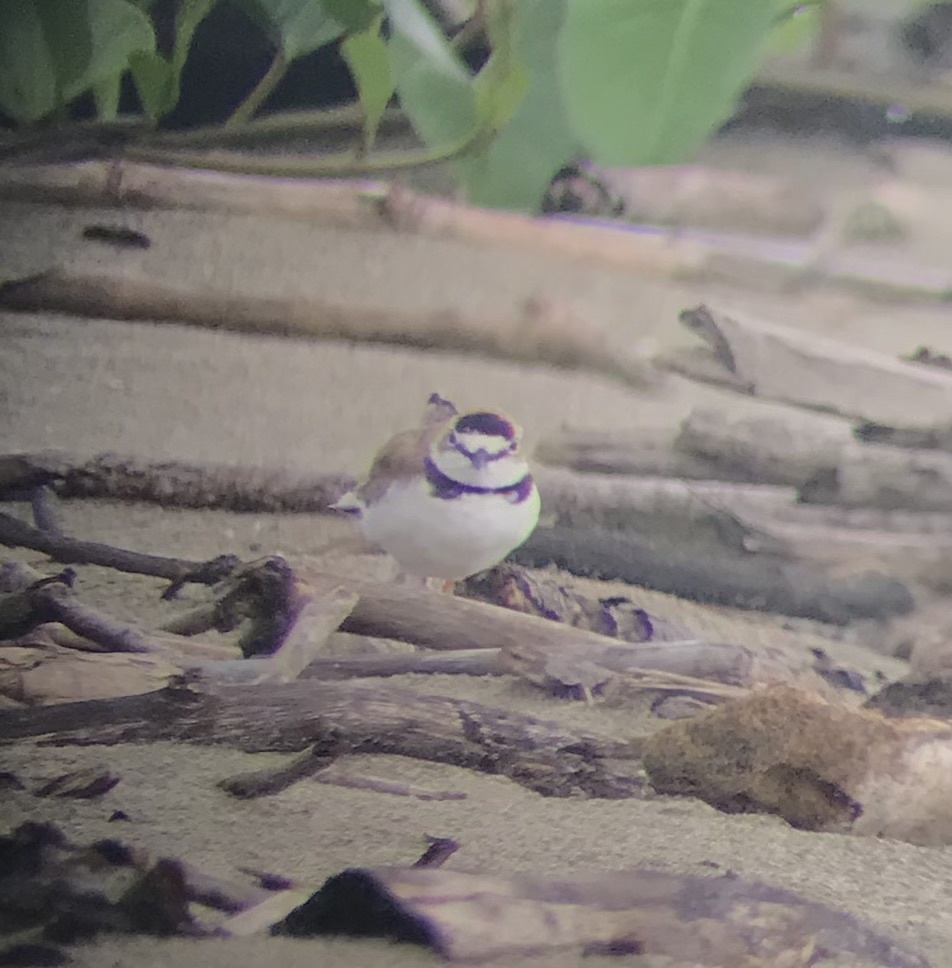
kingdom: Animalia
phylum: Chordata
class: Aves
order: Charadriiformes
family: Charadriidae
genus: Anarhynchus
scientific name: Anarhynchus
